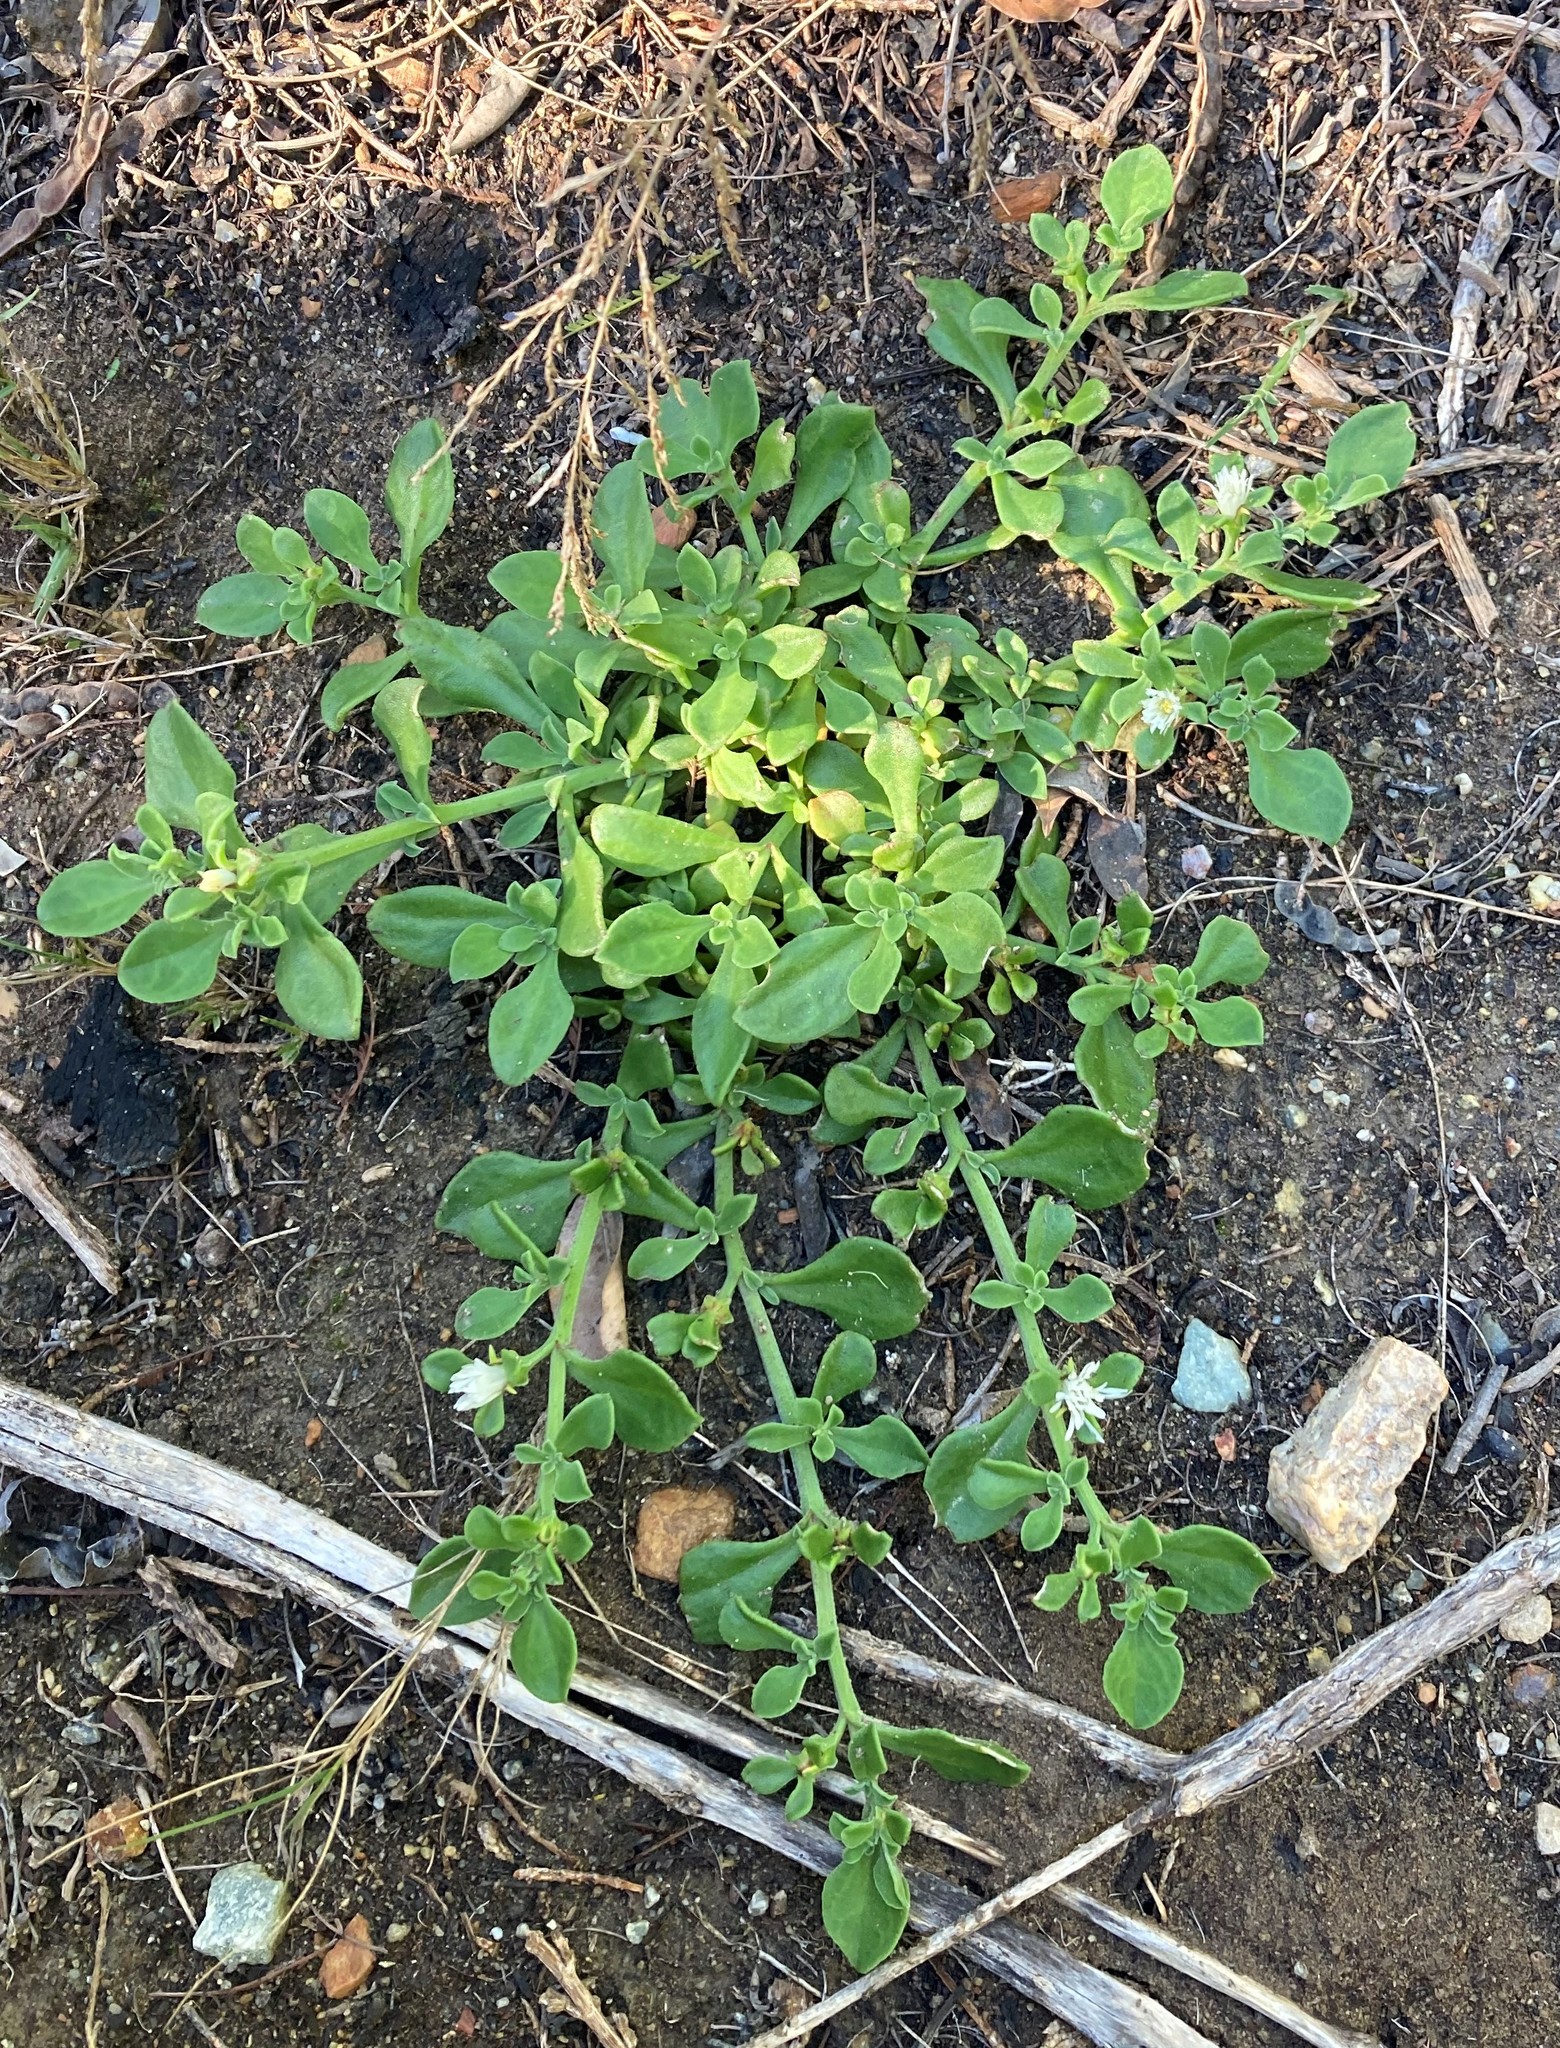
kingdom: Plantae
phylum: Tracheophyta
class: Magnoliopsida
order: Caryophyllales
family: Aizoaceae
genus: Mesembryanthemum
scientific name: Mesembryanthemum aitonis
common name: Angled iceplant
